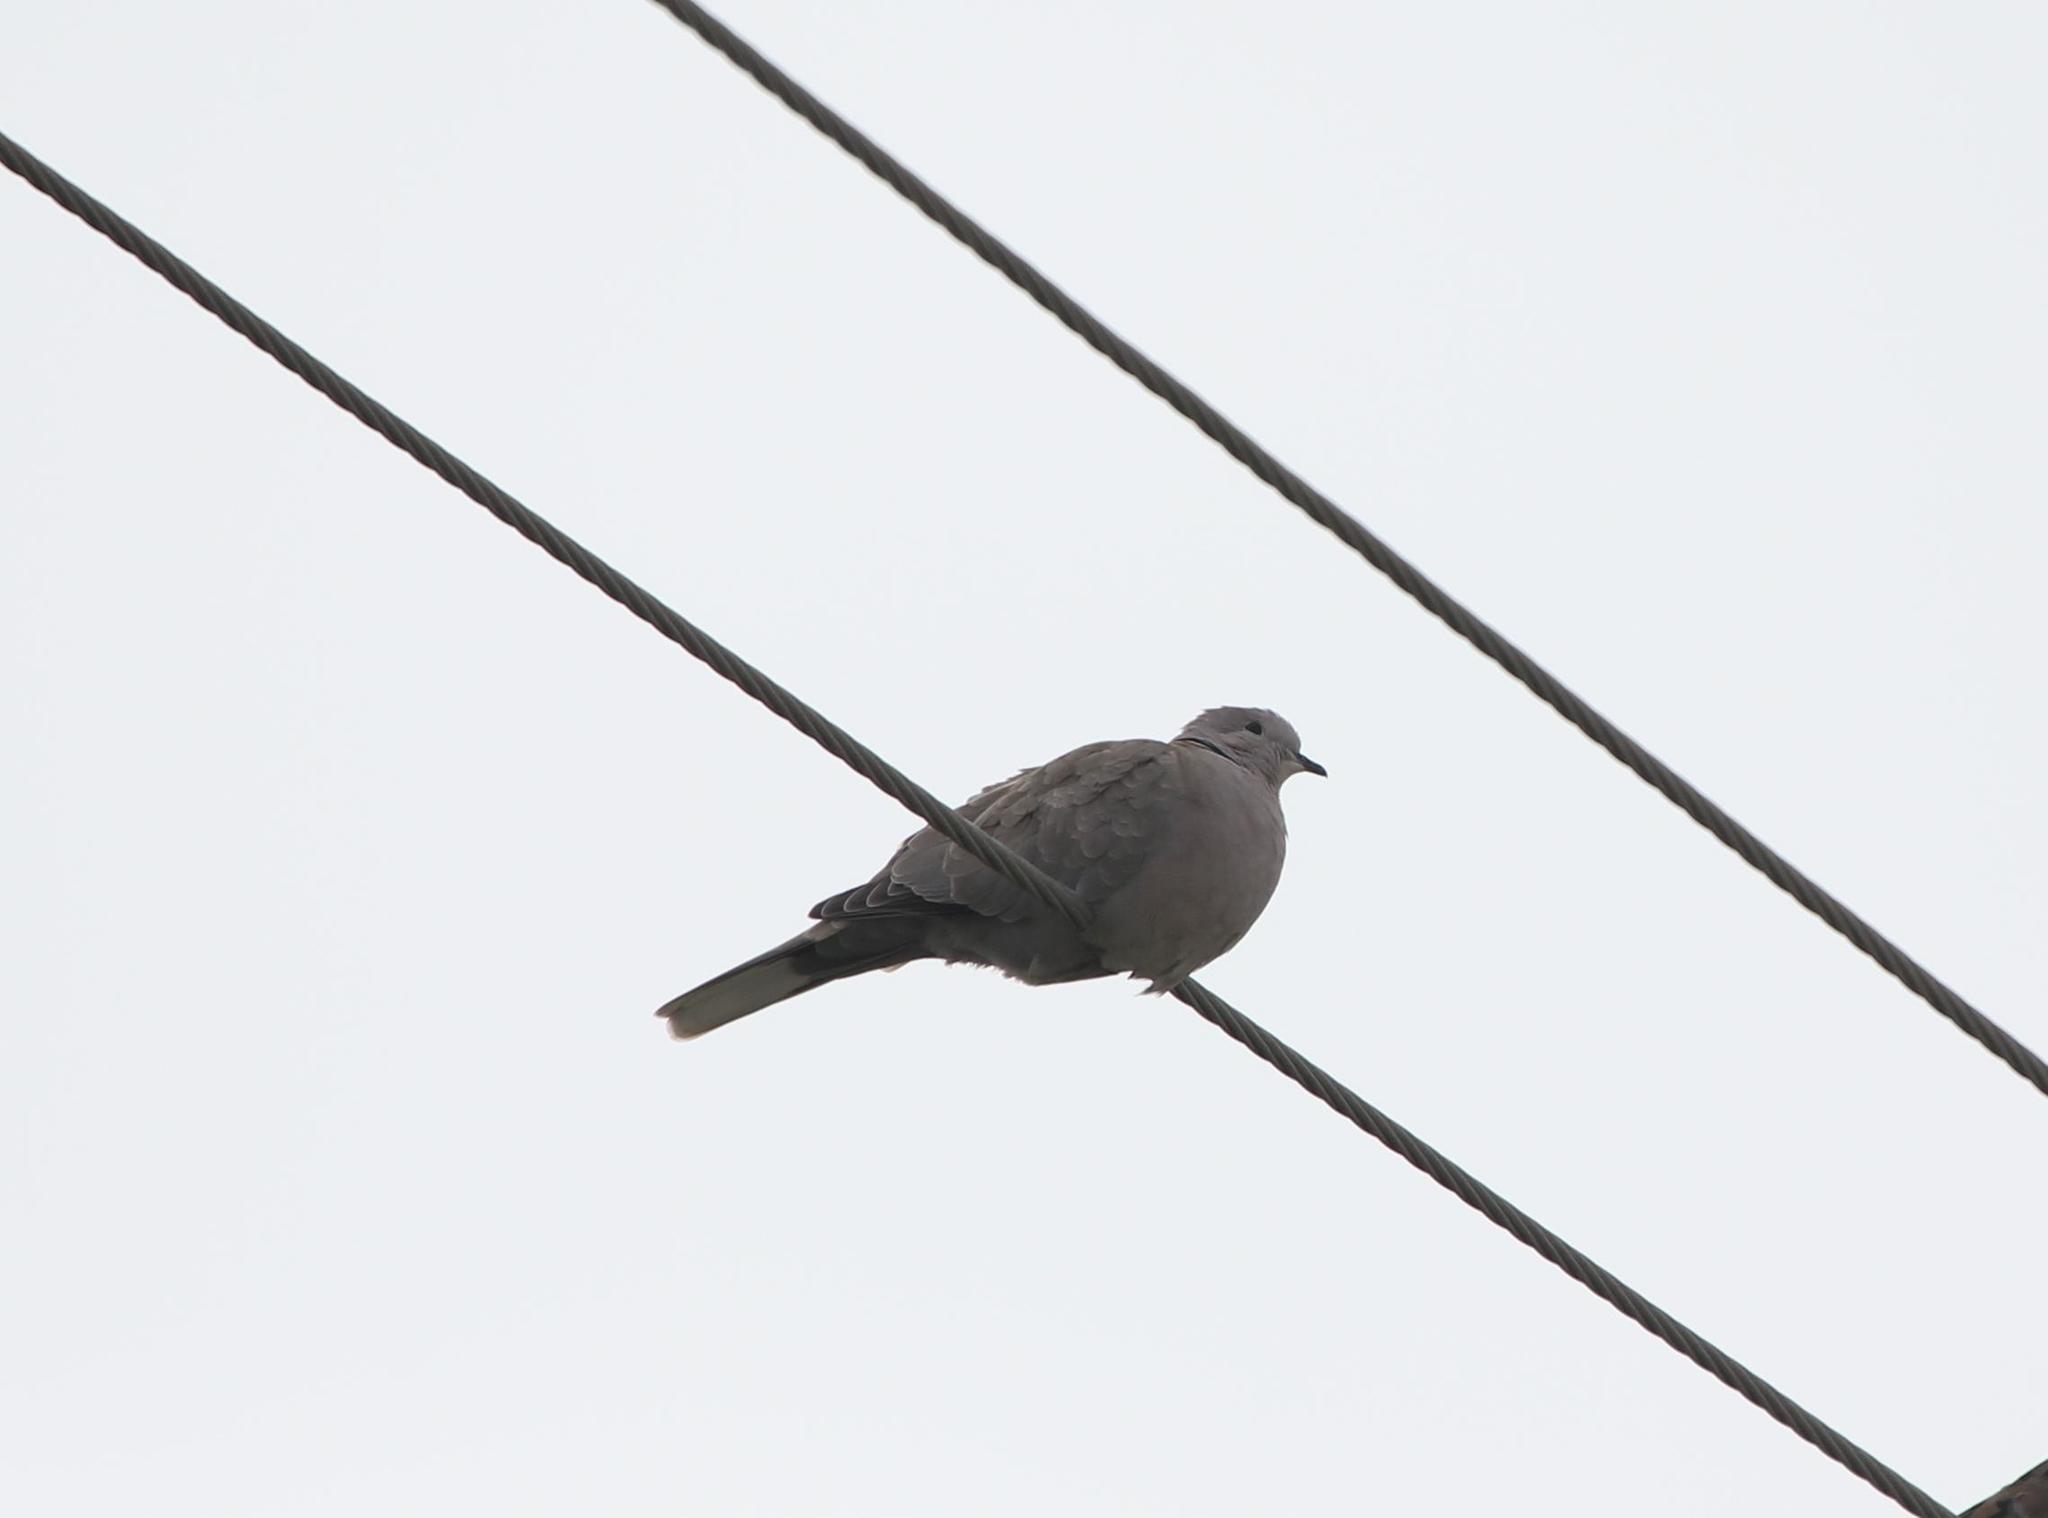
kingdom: Animalia
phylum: Chordata
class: Aves
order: Columbiformes
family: Columbidae
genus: Streptopelia
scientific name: Streptopelia decaocto
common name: Eurasian collared dove
